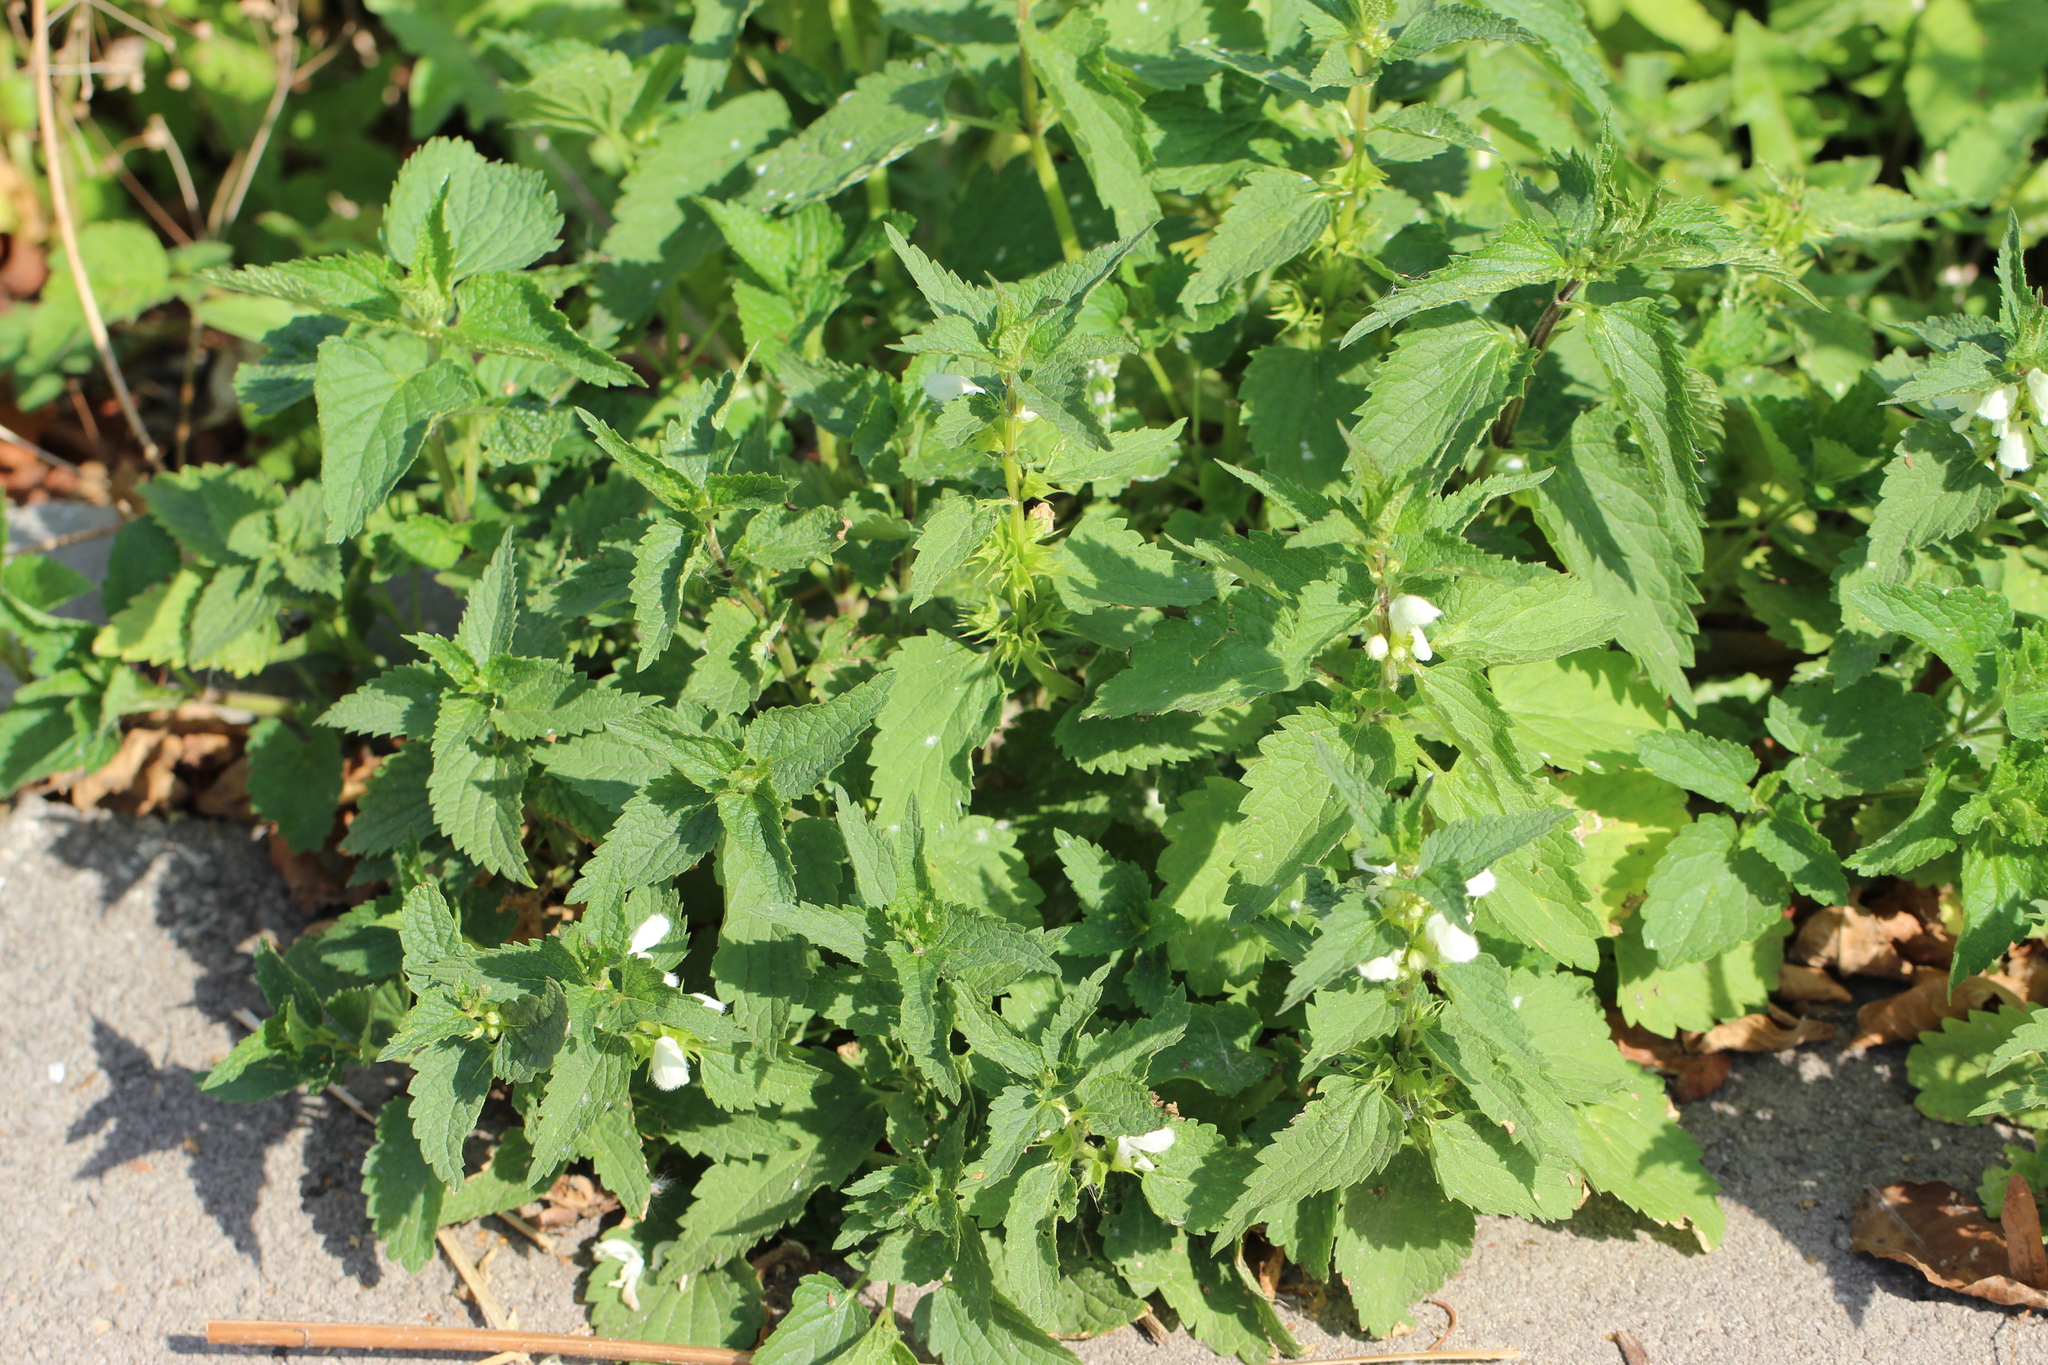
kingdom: Plantae
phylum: Tracheophyta
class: Magnoliopsida
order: Lamiales
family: Lamiaceae
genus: Lamium
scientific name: Lamium album
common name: White dead-nettle
